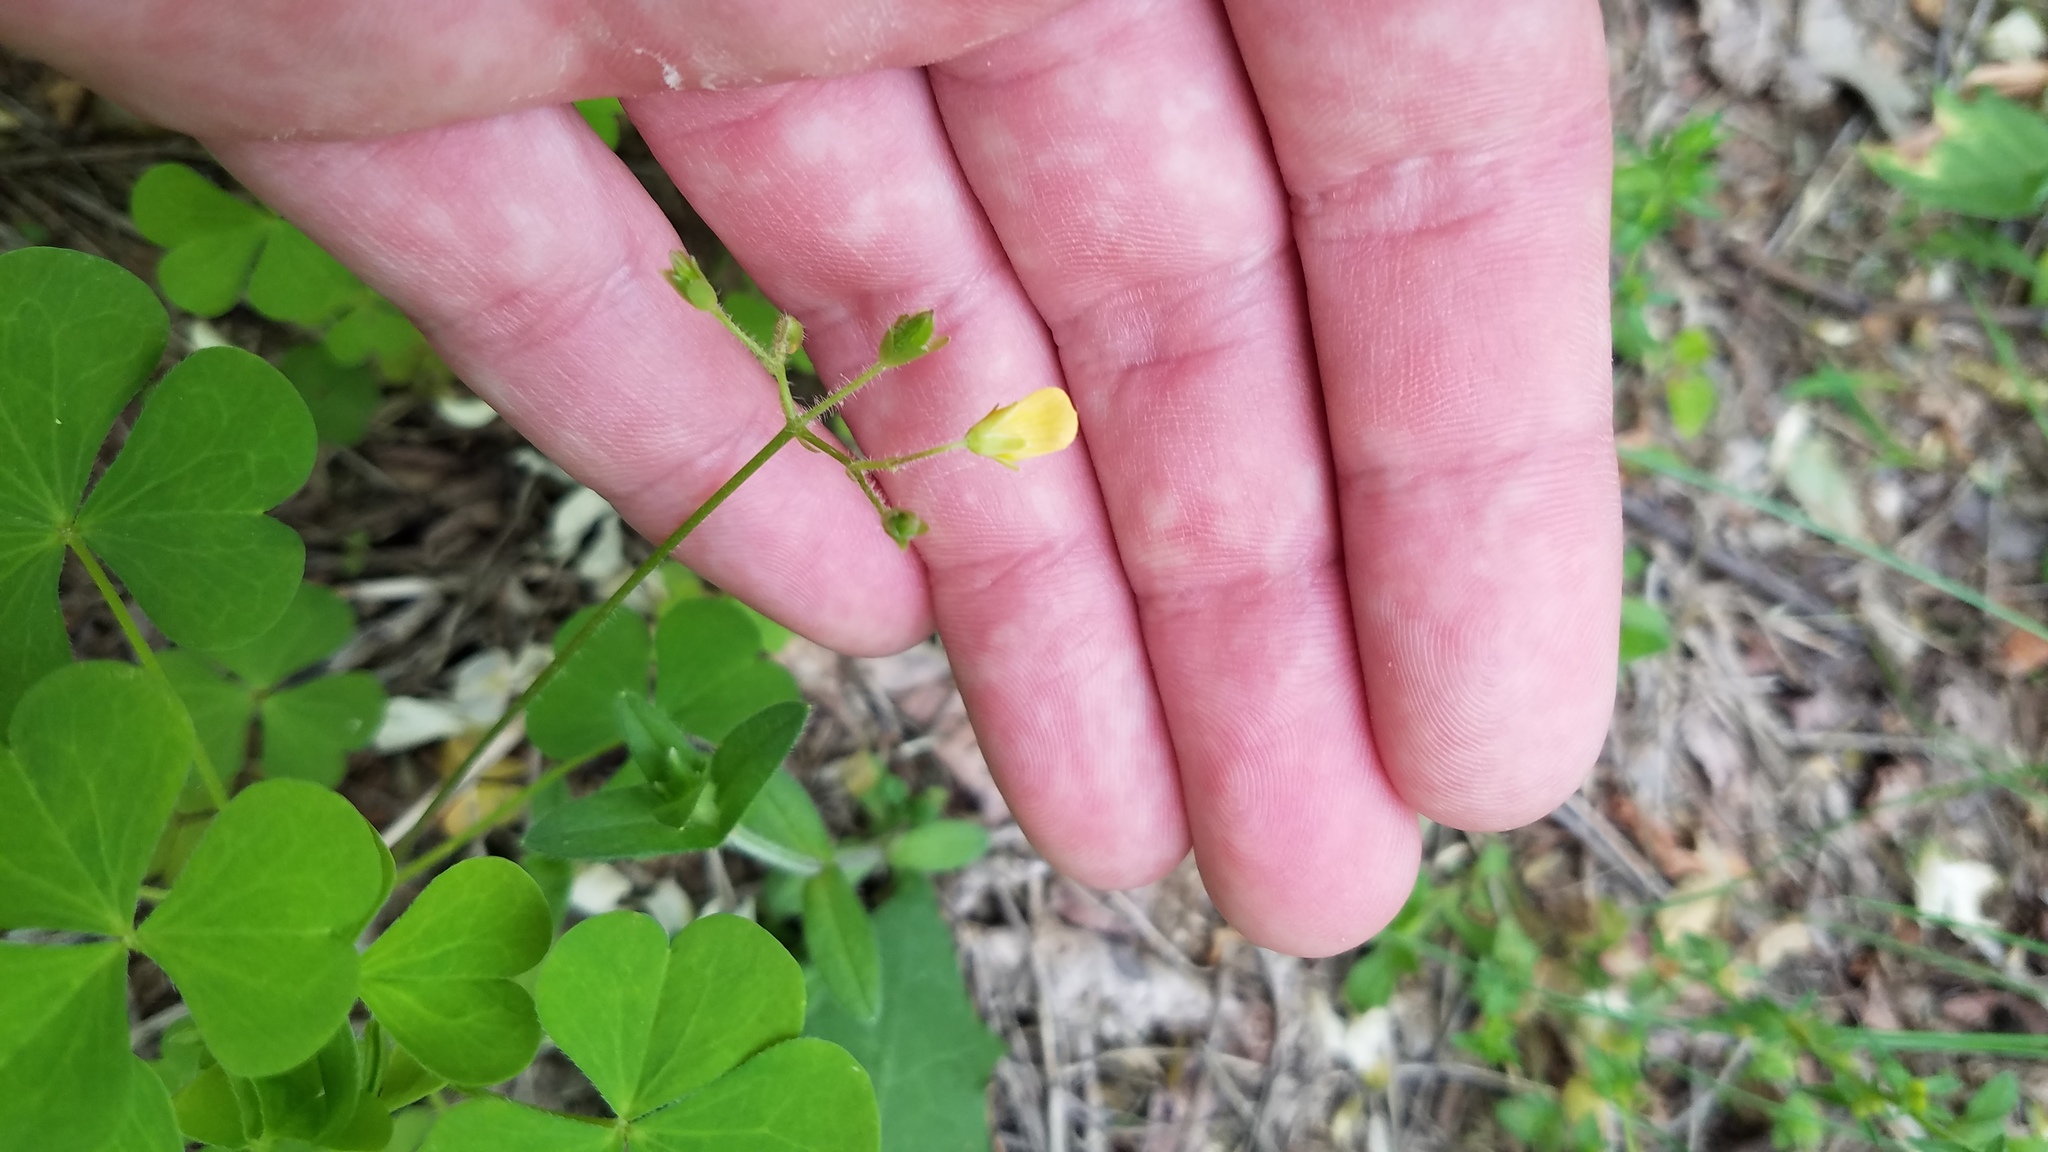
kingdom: Plantae
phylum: Tracheophyta
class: Magnoliopsida
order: Oxalidales
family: Oxalidaceae
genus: Oxalis
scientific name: Oxalis stricta
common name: Upright yellow-sorrel
